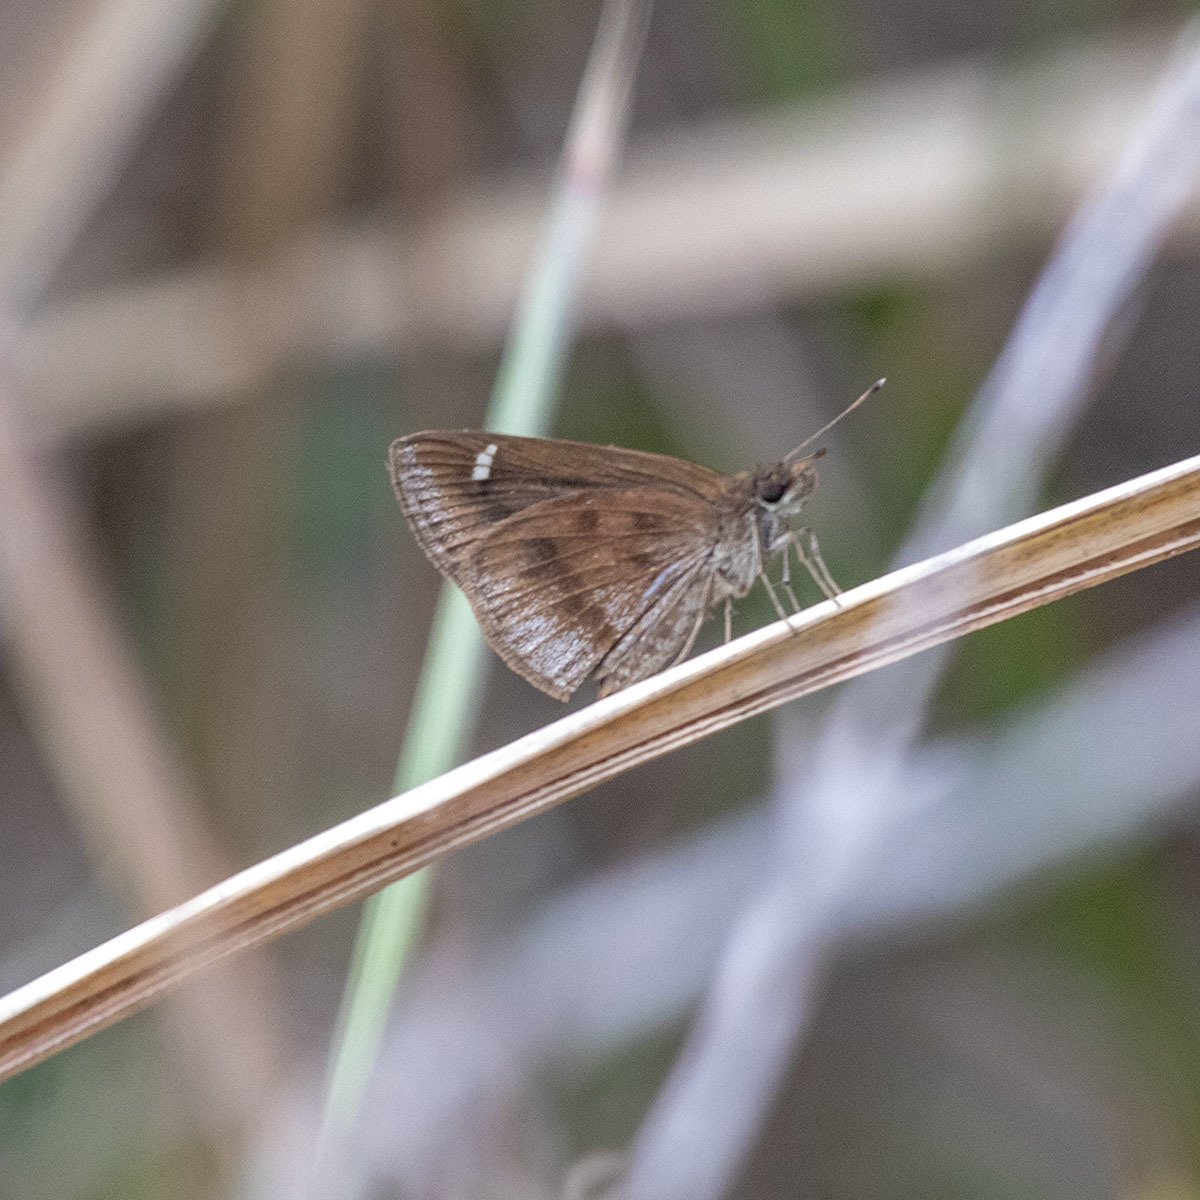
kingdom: Animalia
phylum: Arthropoda
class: Insecta
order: Lepidoptera
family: Hesperiidae
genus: Arnetta
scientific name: Arnetta mercara
